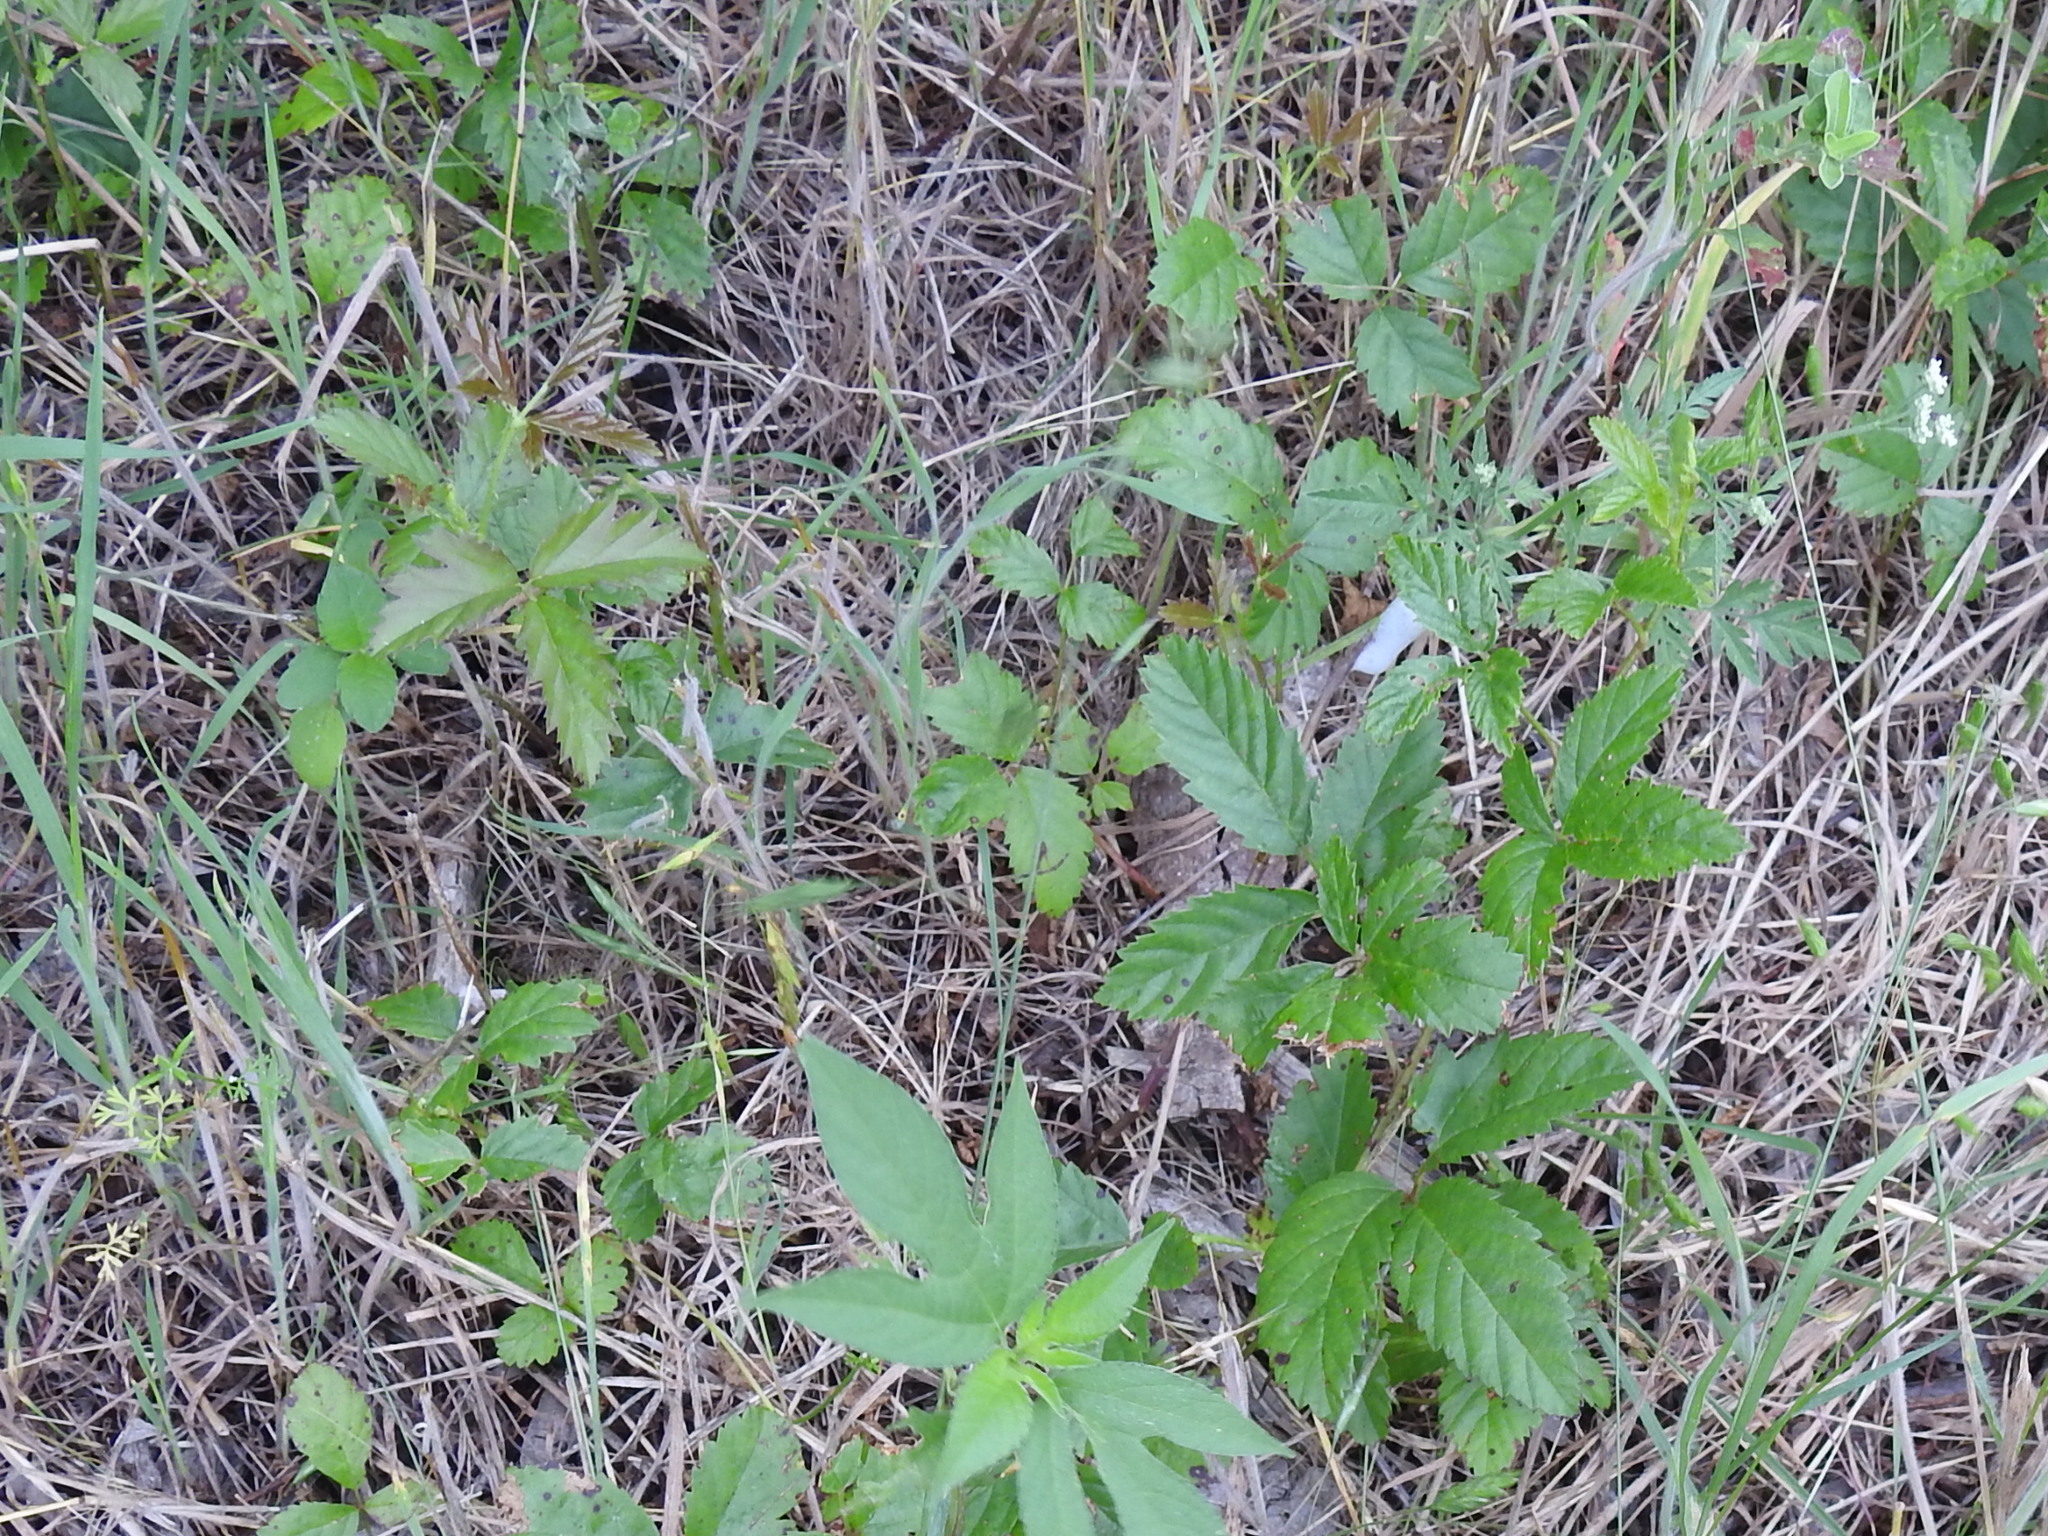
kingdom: Plantae
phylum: Tracheophyta
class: Magnoliopsida
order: Rosales
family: Rosaceae
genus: Rubus
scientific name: Rubus trivialis
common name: Southern dewberry
